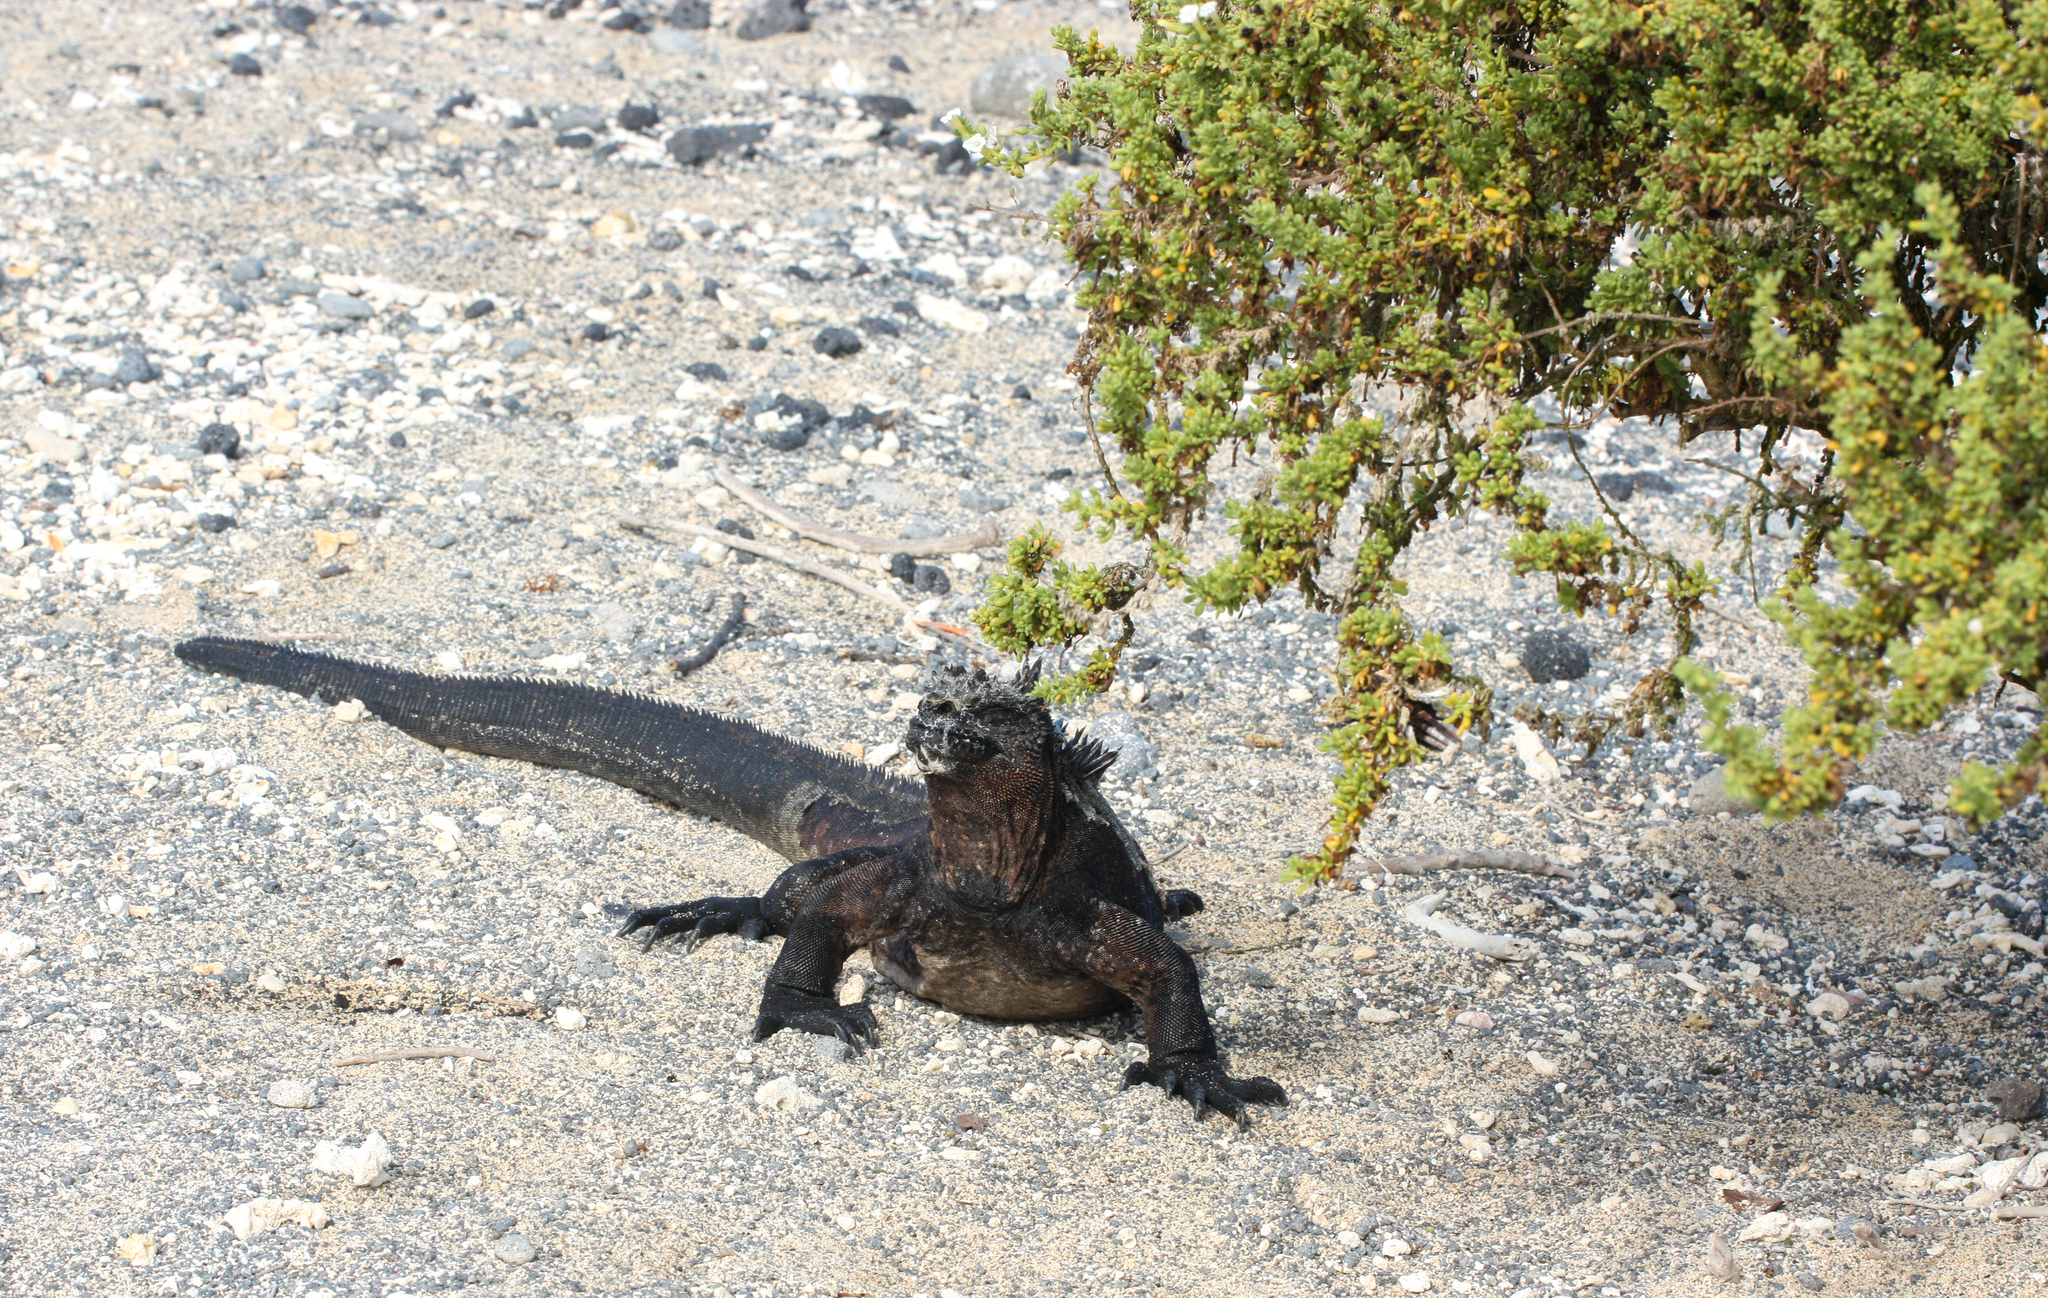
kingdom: Animalia
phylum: Chordata
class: Squamata
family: Iguanidae
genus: Amblyrhynchus
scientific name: Amblyrhynchus cristatus
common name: Marine iguana
